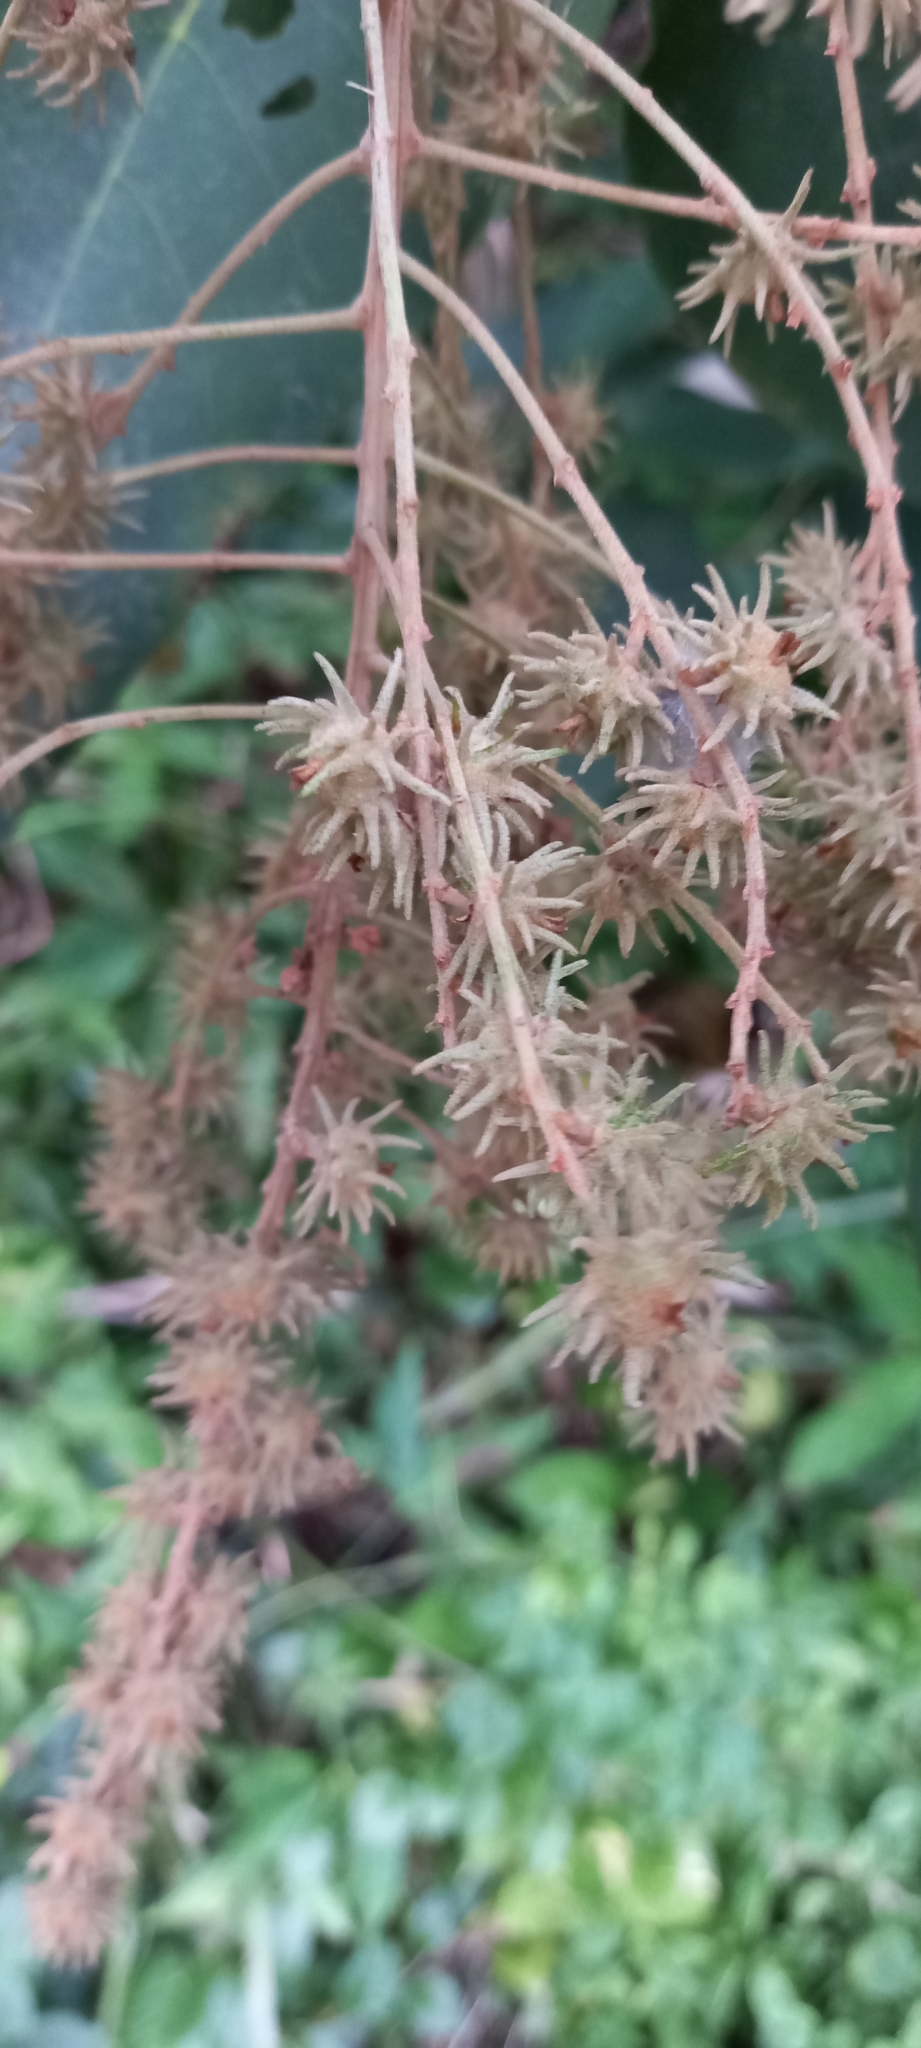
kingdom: Plantae
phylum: Tracheophyta
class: Magnoliopsida
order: Malpighiales
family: Euphorbiaceae
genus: Mallotus
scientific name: Mallotus paniculatus
